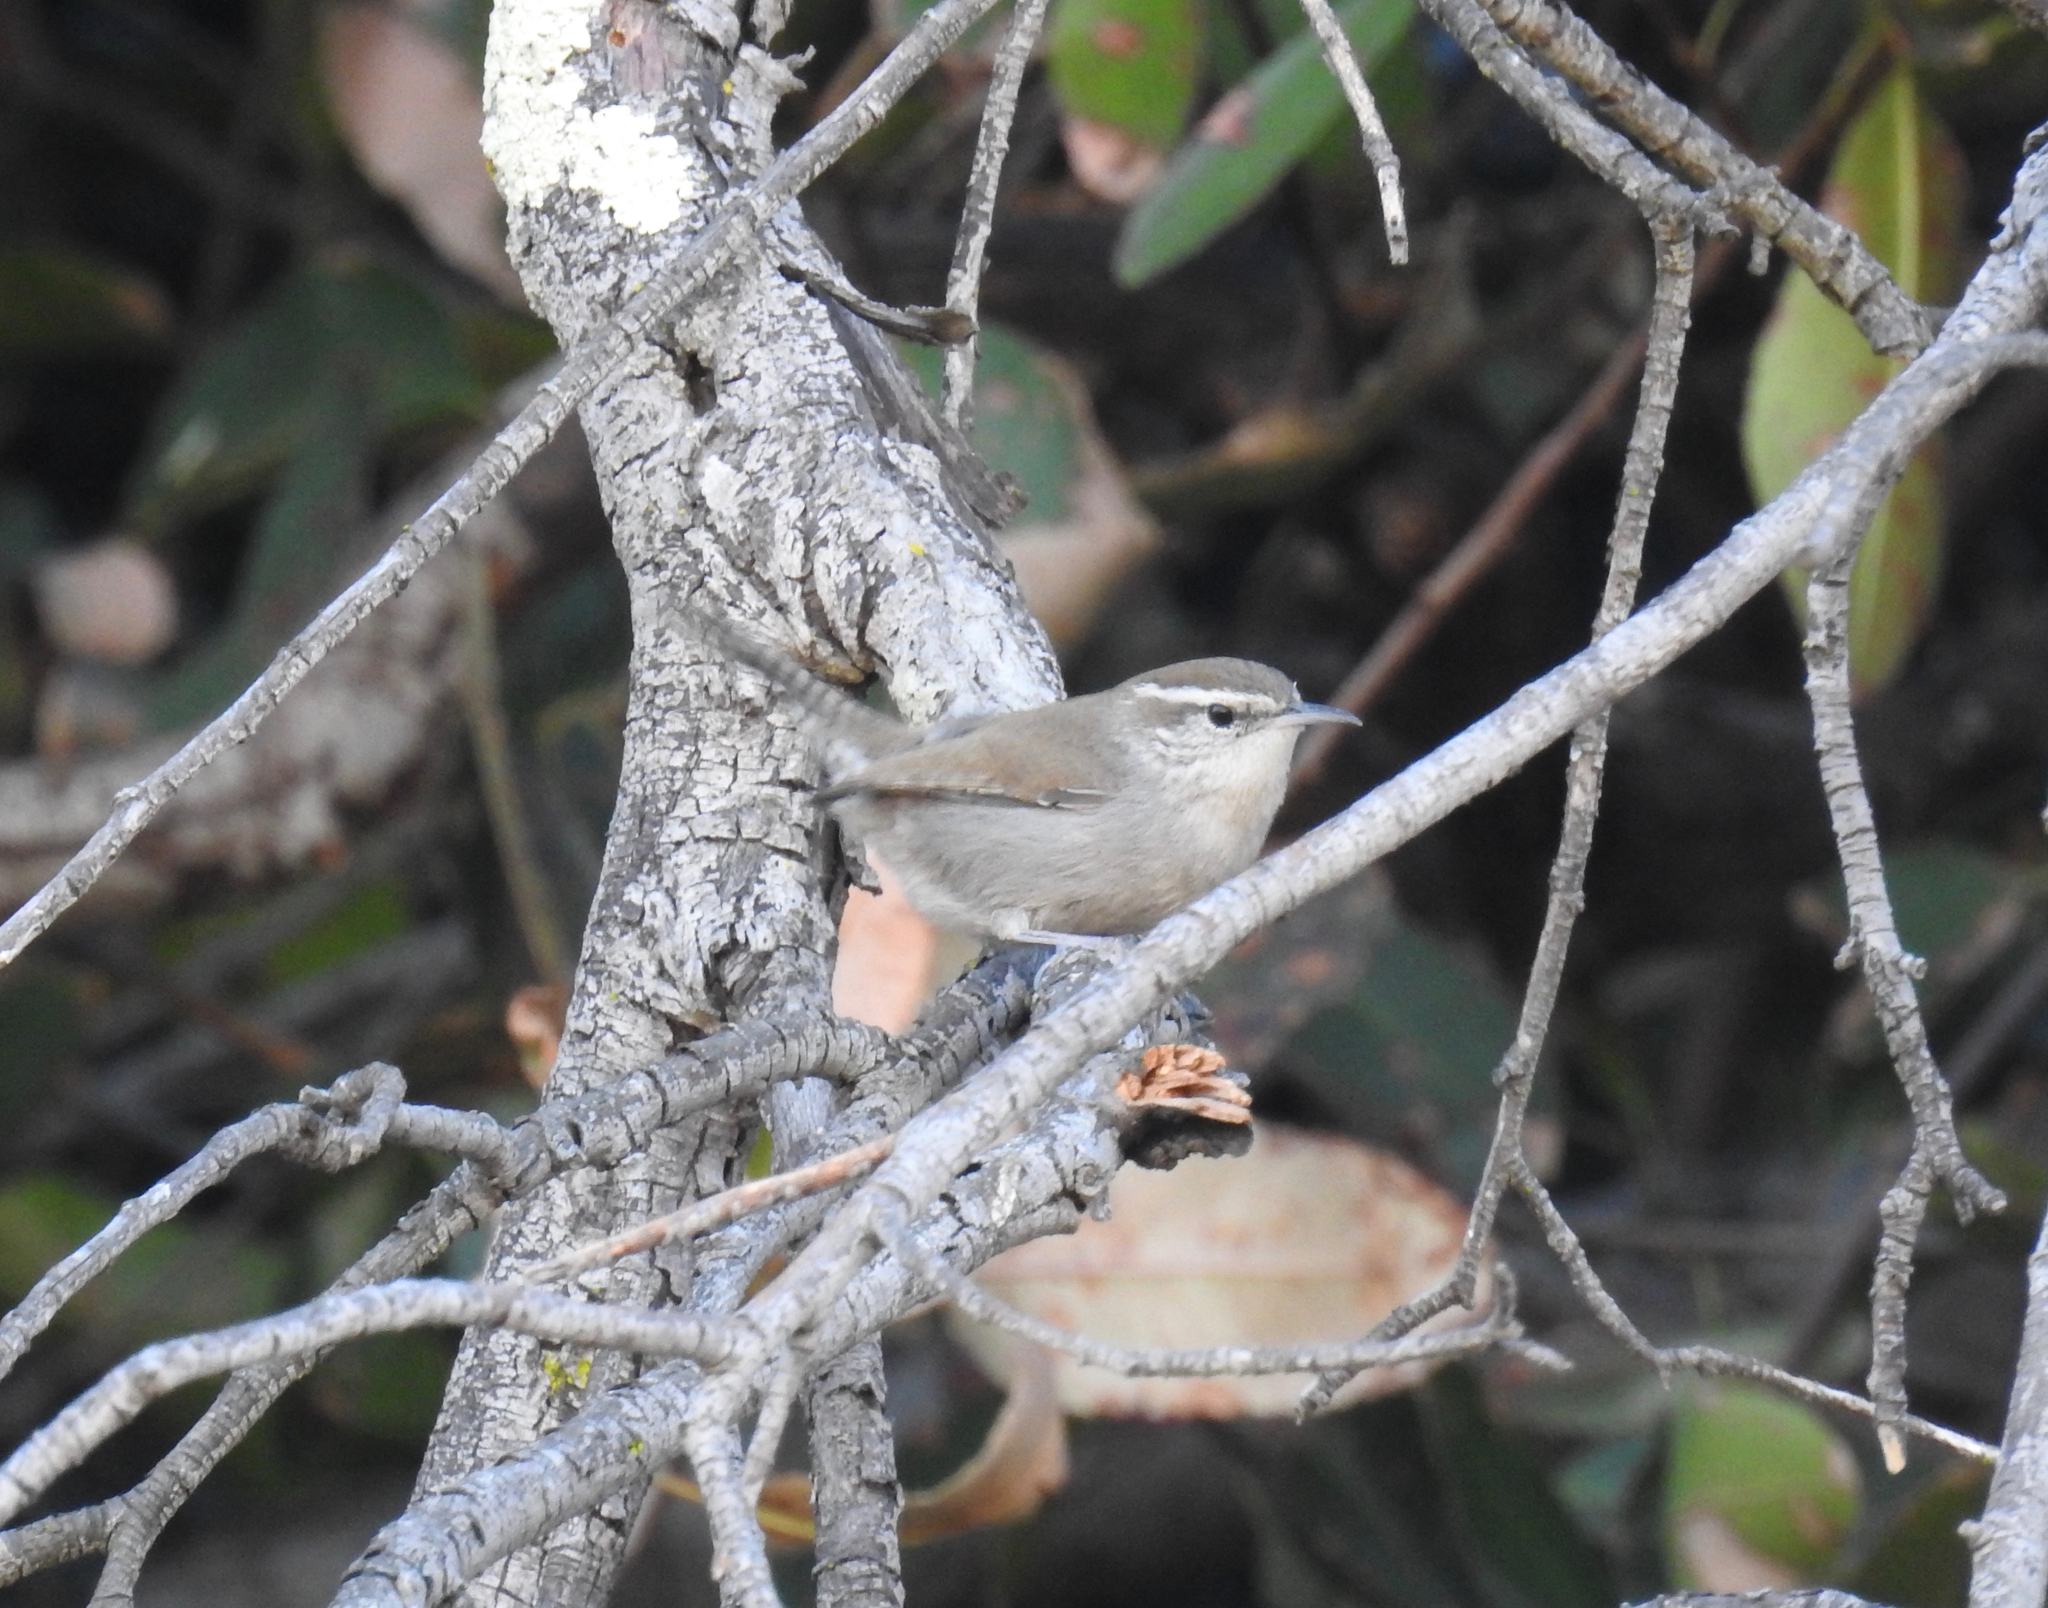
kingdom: Animalia
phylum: Chordata
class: Aves
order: Passeriformes
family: Troglodytidae
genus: Thryomanes
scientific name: Thryomanes bewickii
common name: Bewick's wren
